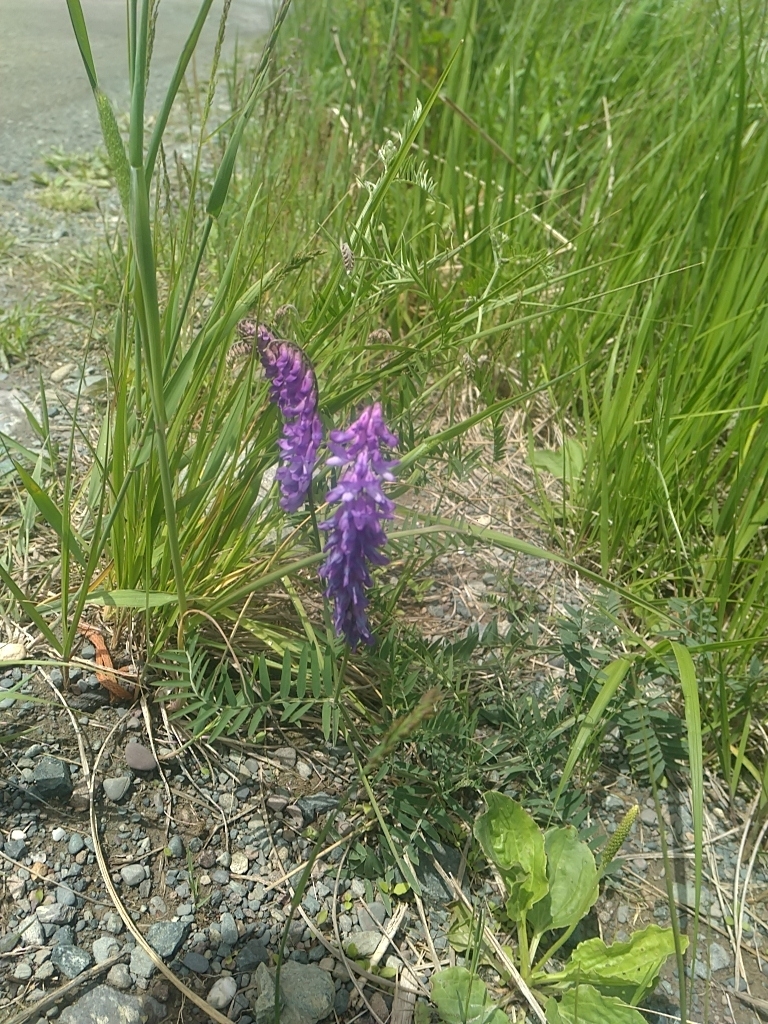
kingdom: Plantae
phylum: Tracheophyta
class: Magnoliopsida
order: Fabales
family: Fabaceae
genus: Vicia
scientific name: Vicia cracca
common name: Bird vetch
